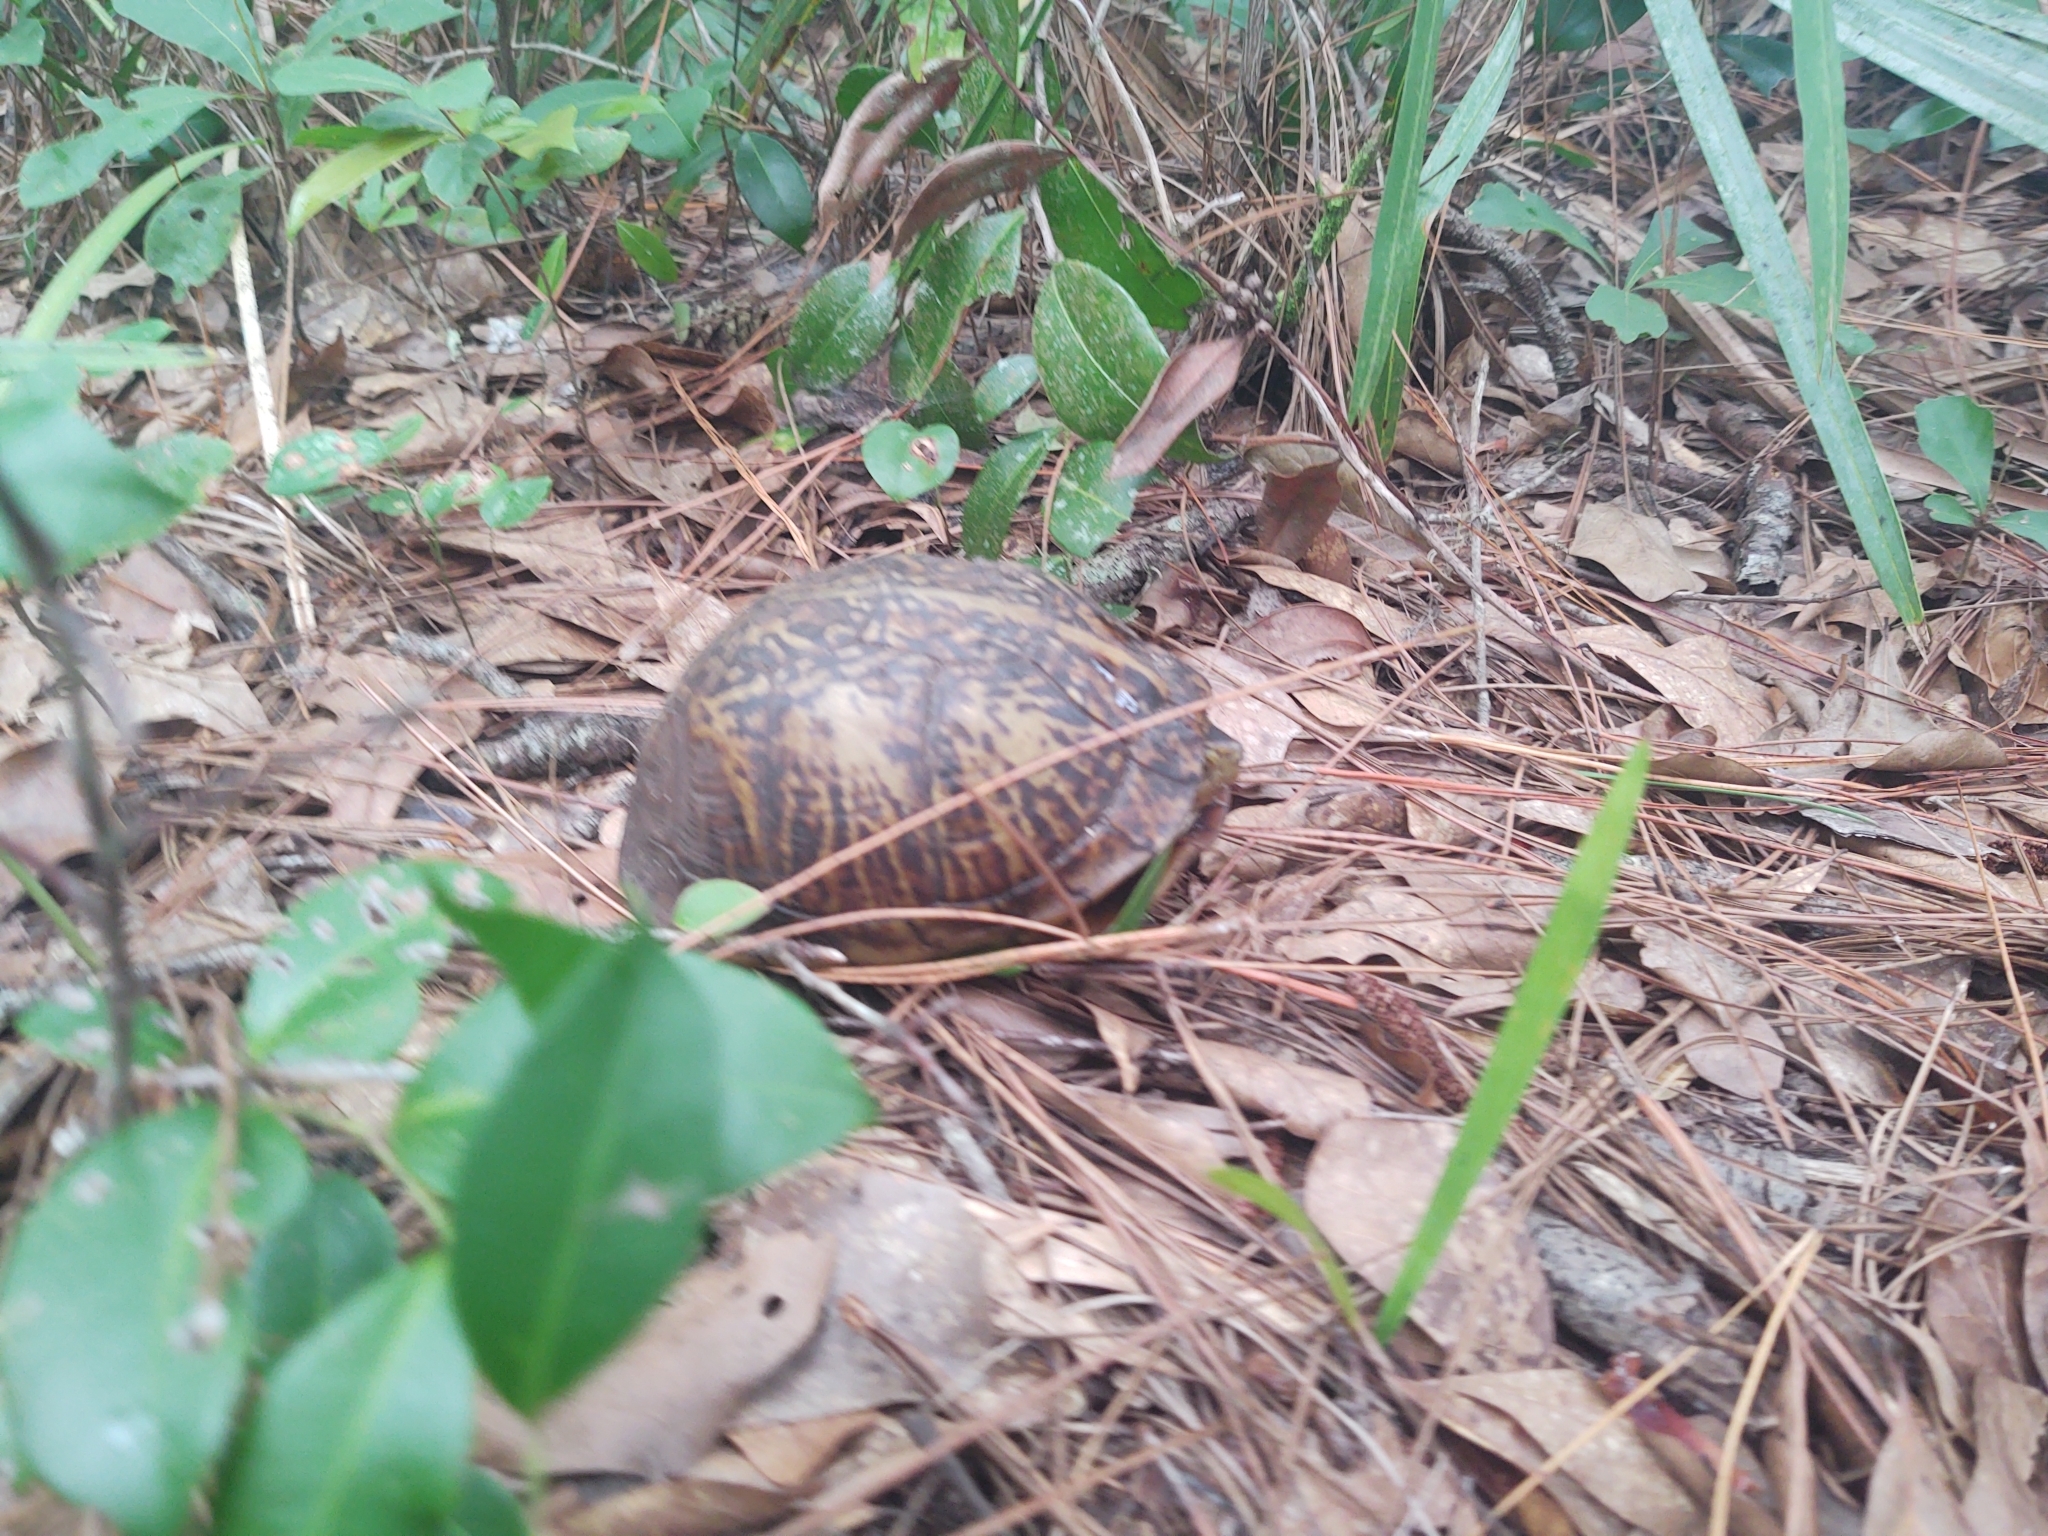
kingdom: Animalia
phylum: Chordata
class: Testudines
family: Emydidae
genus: Terrapene
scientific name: Terrapene carolina
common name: Common box turtle
